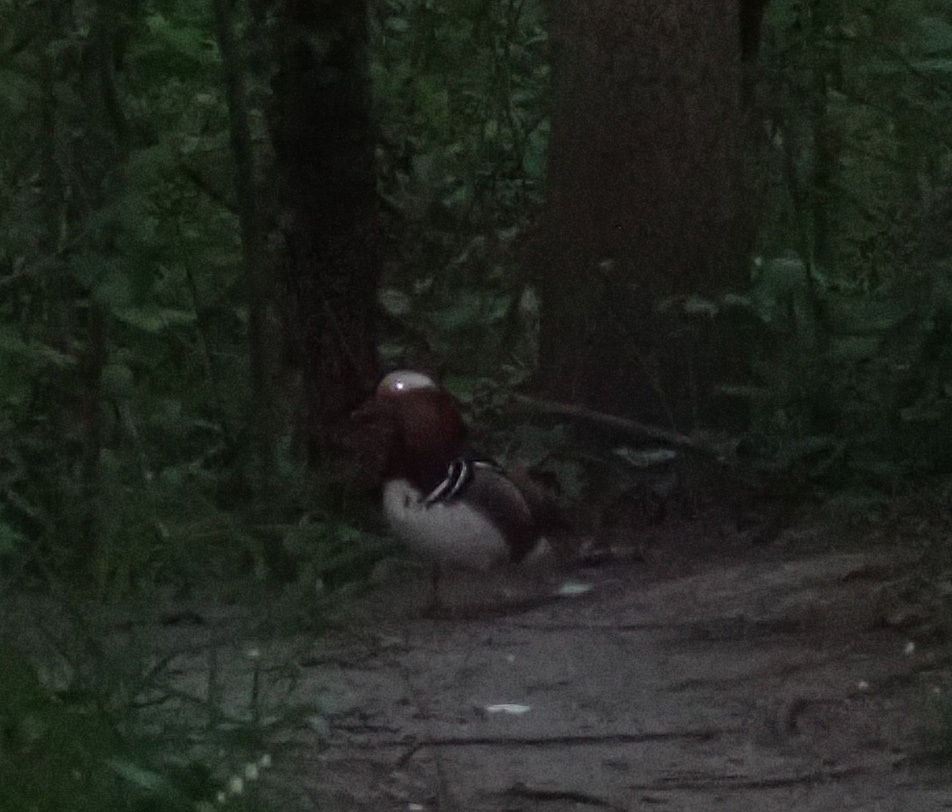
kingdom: Animalia
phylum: Chordata
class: Aves
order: Anseriformes
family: Anatidae
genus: Aix
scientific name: Aix galericulata
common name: Mandarin duck
